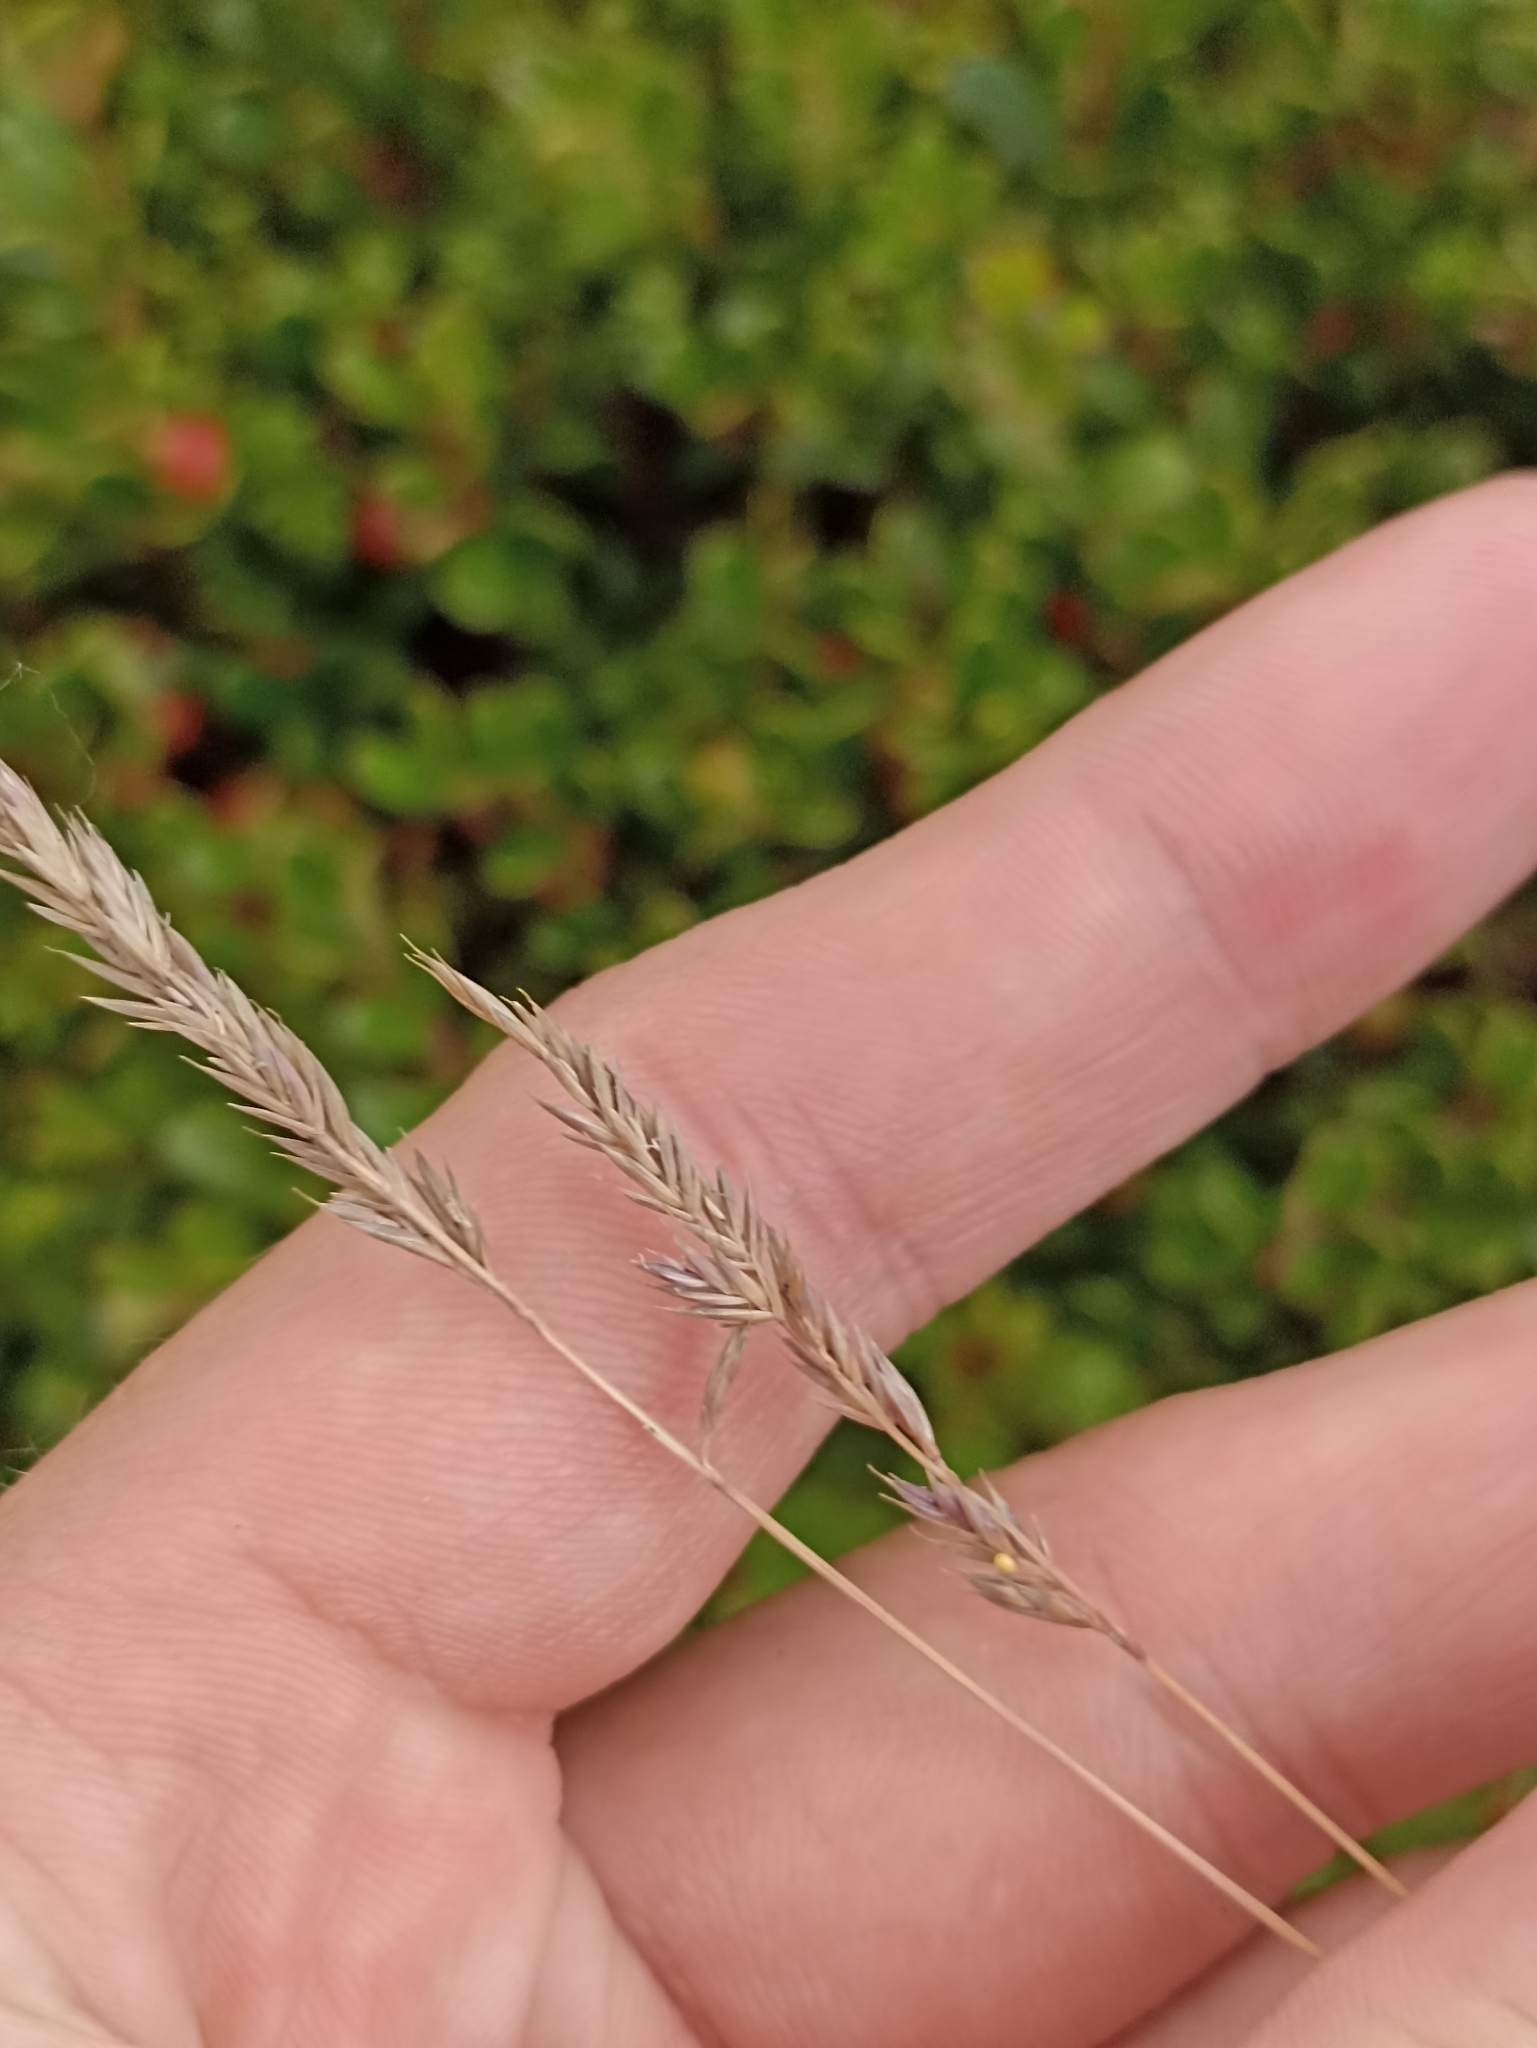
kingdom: Plantae
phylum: Tracheophyta
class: Liliopsida
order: Poales
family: Poaceae
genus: Festuca
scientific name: Festuca ovina
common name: Sheep fescue
